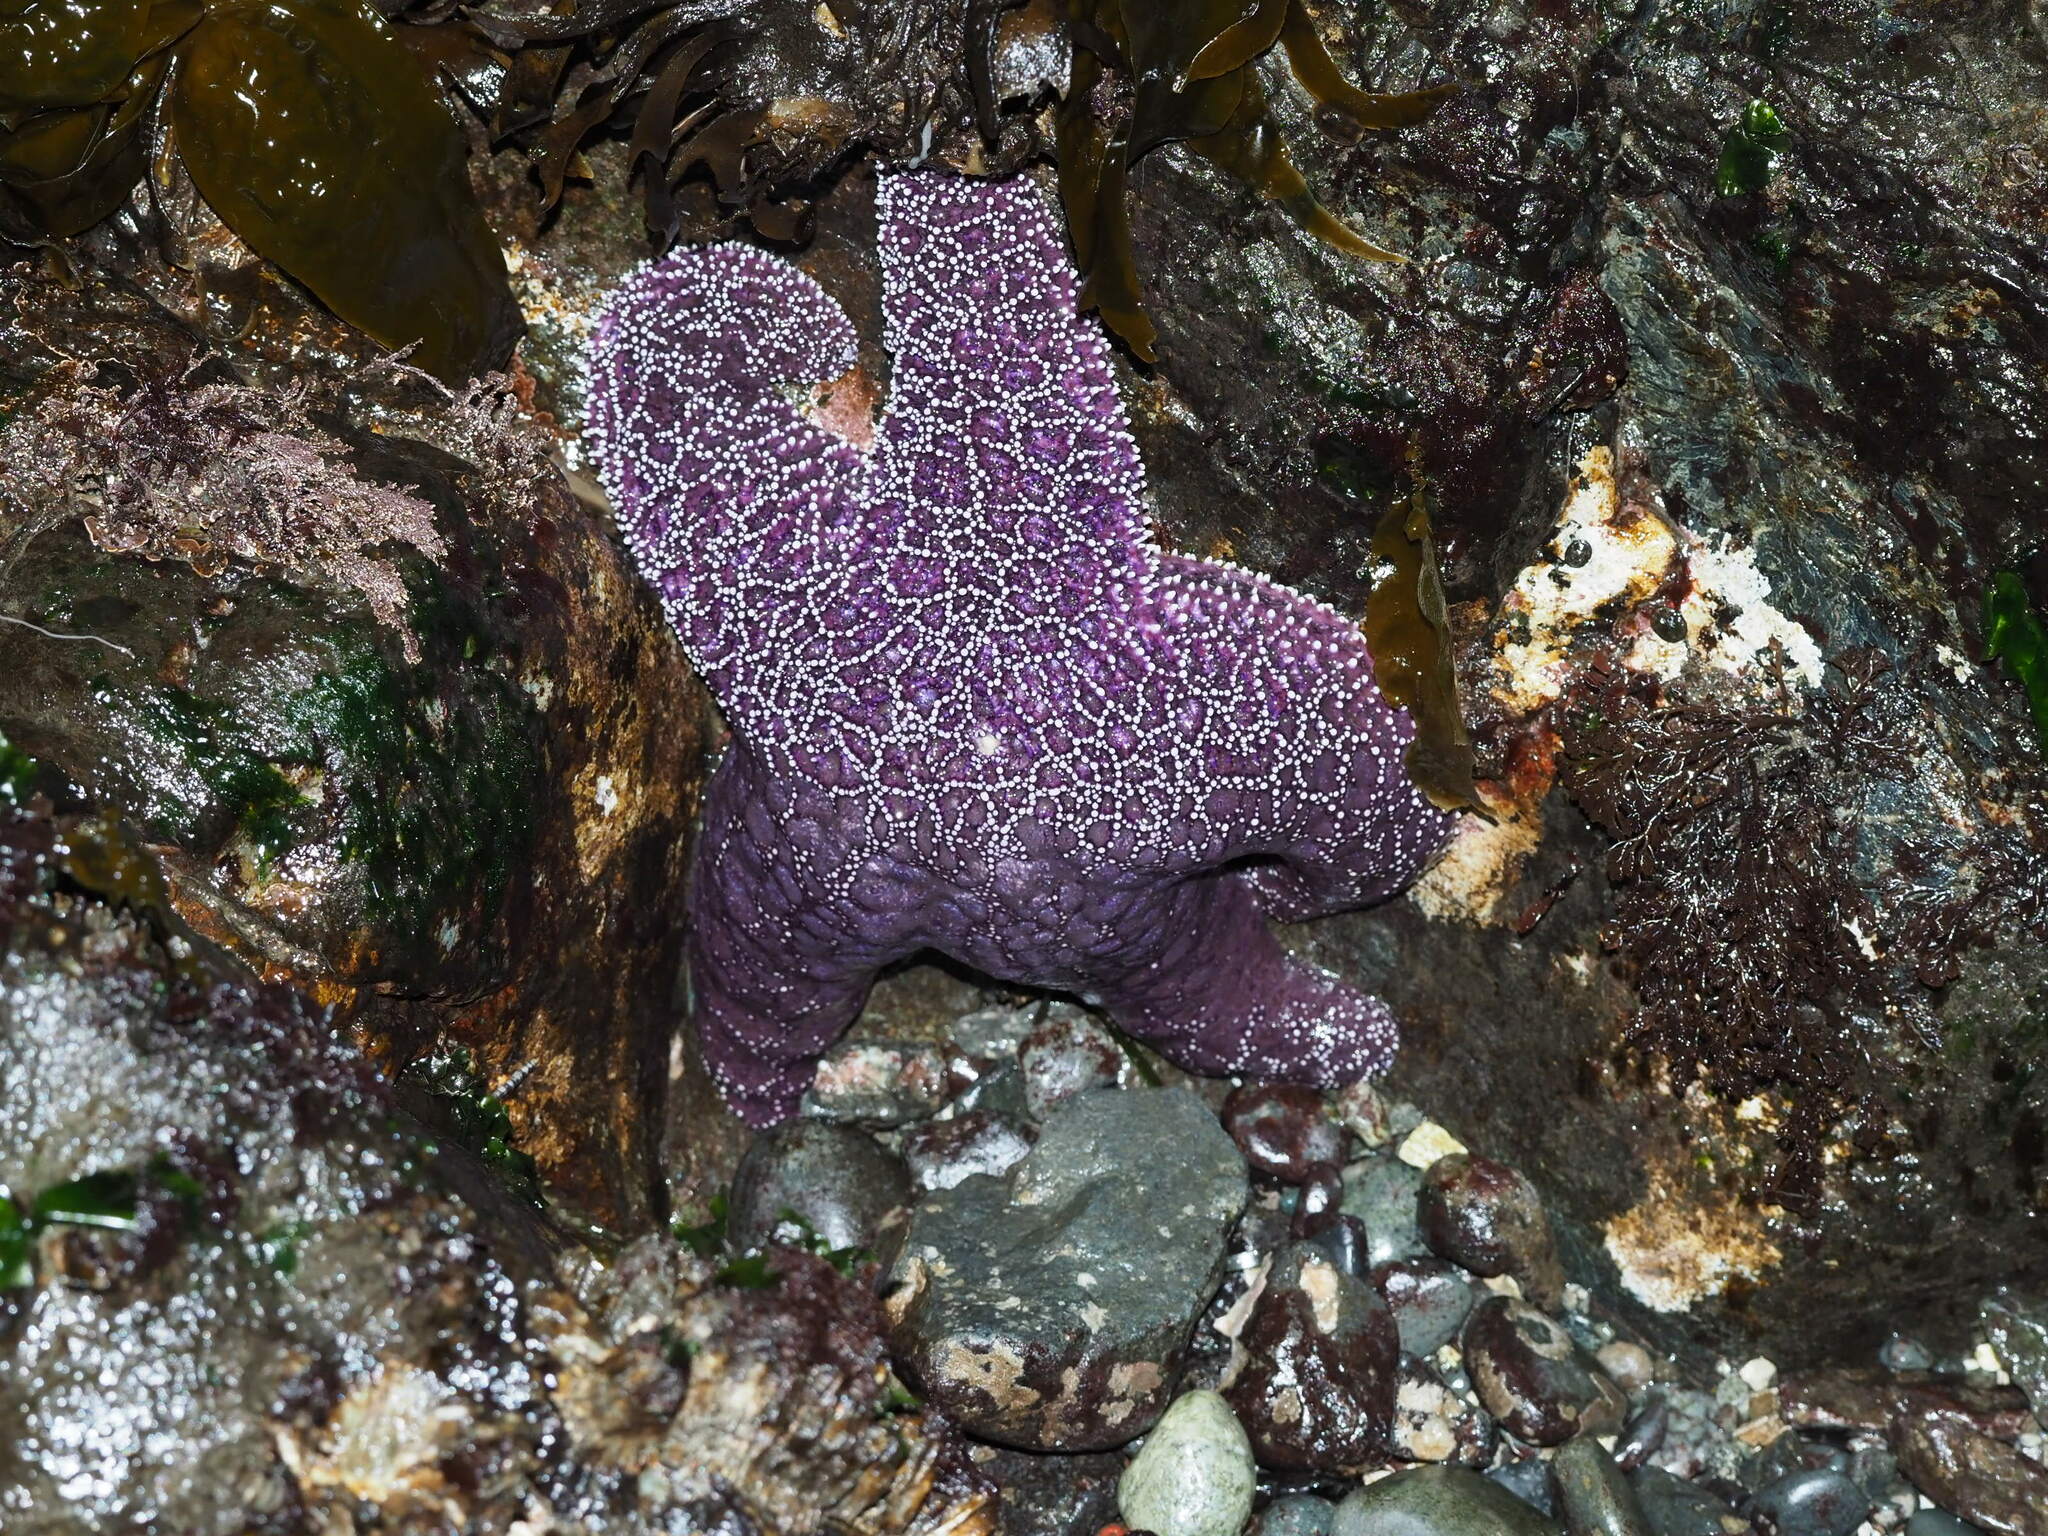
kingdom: Animalia
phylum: Echinodermata
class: Asteroidea
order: Forcipulatida
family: Asteriidae
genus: Pisaster
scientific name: Pisaster ochraceus
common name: Ochre stars
